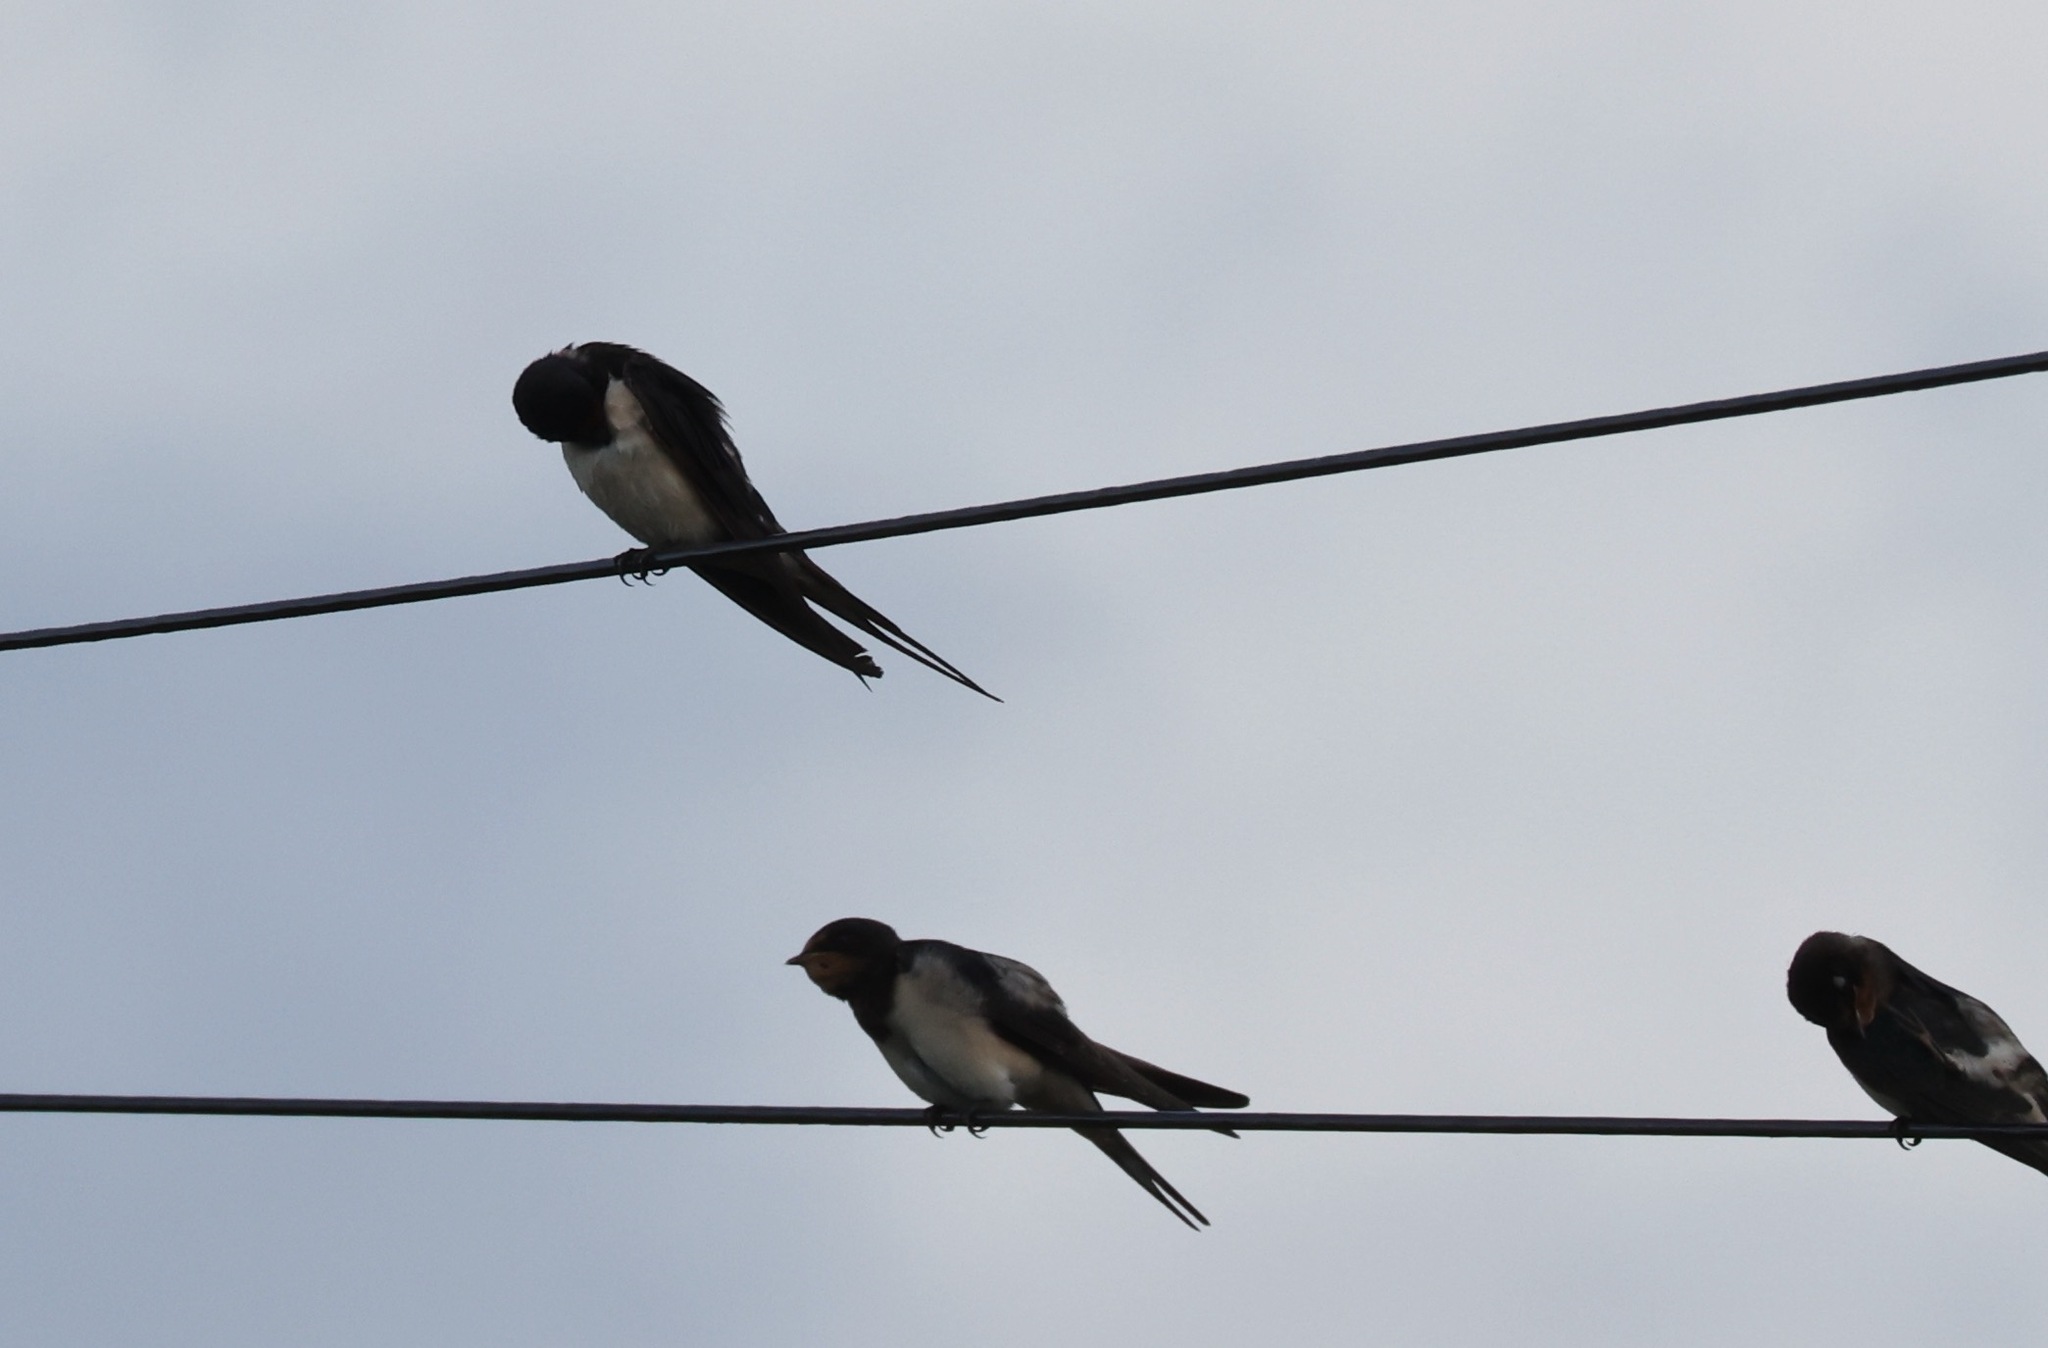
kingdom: Animalia
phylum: Chordata
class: Aves
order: Passeriformes
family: Hirundinidae
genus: Hirundo
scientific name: Hirundo rustica
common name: Barn swallow
